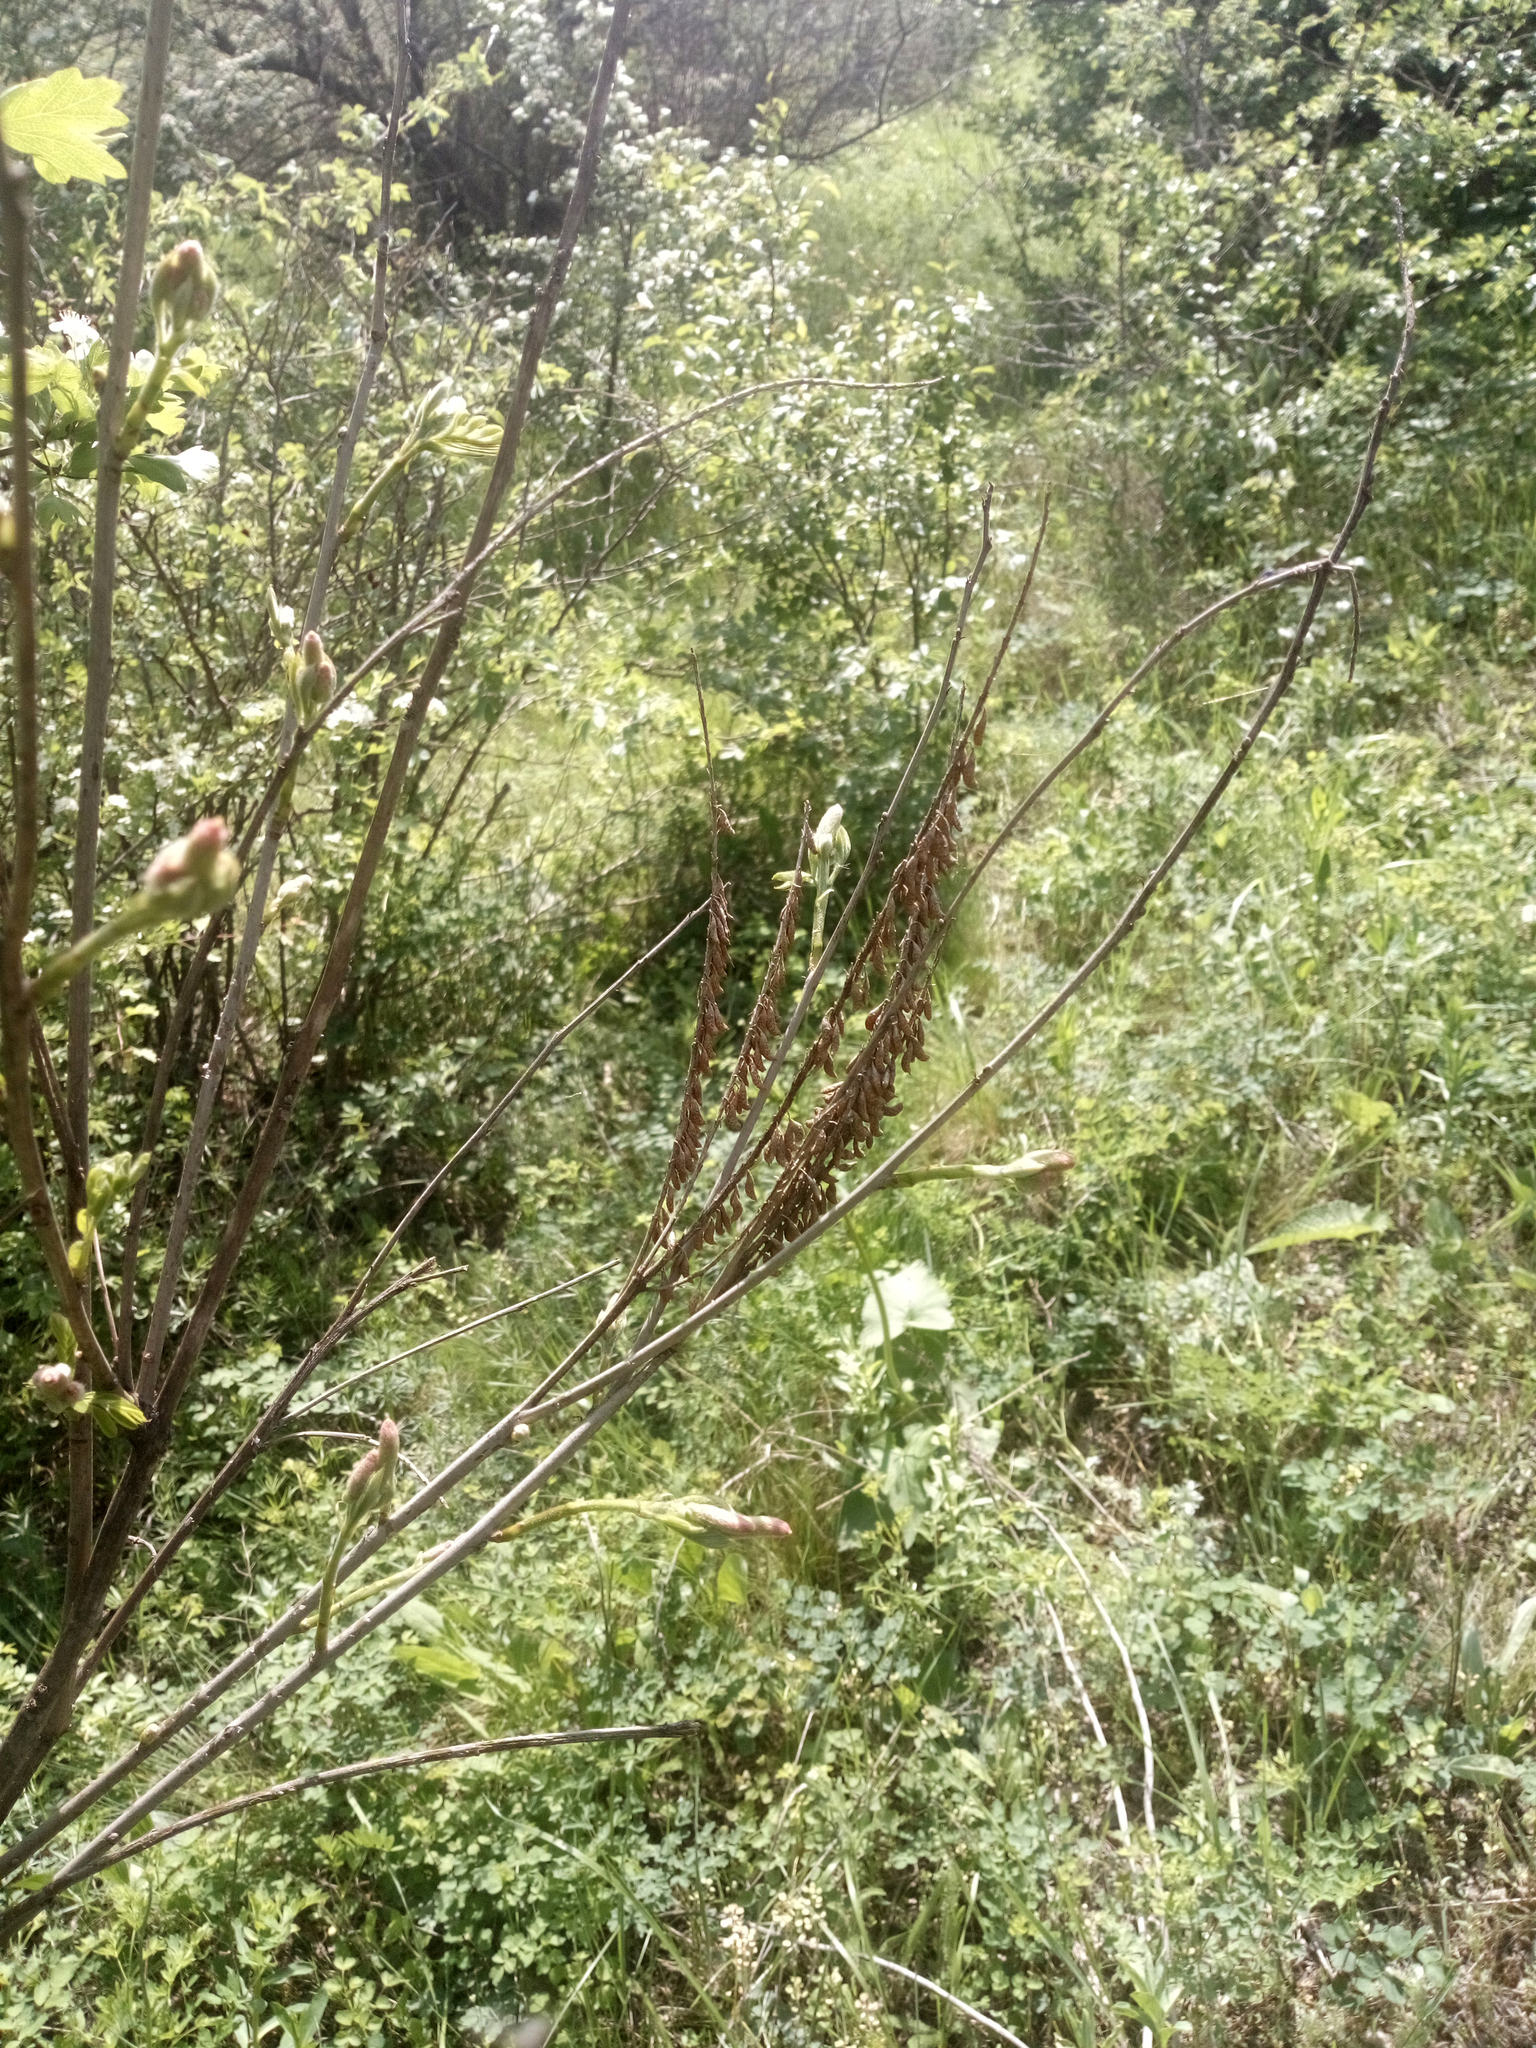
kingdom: Plantae
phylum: Tracheophyta
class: Magnoliopsida
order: Fabales
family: Fabaceae
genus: Amorpha
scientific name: Amorpha fruticosa
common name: False indigo
